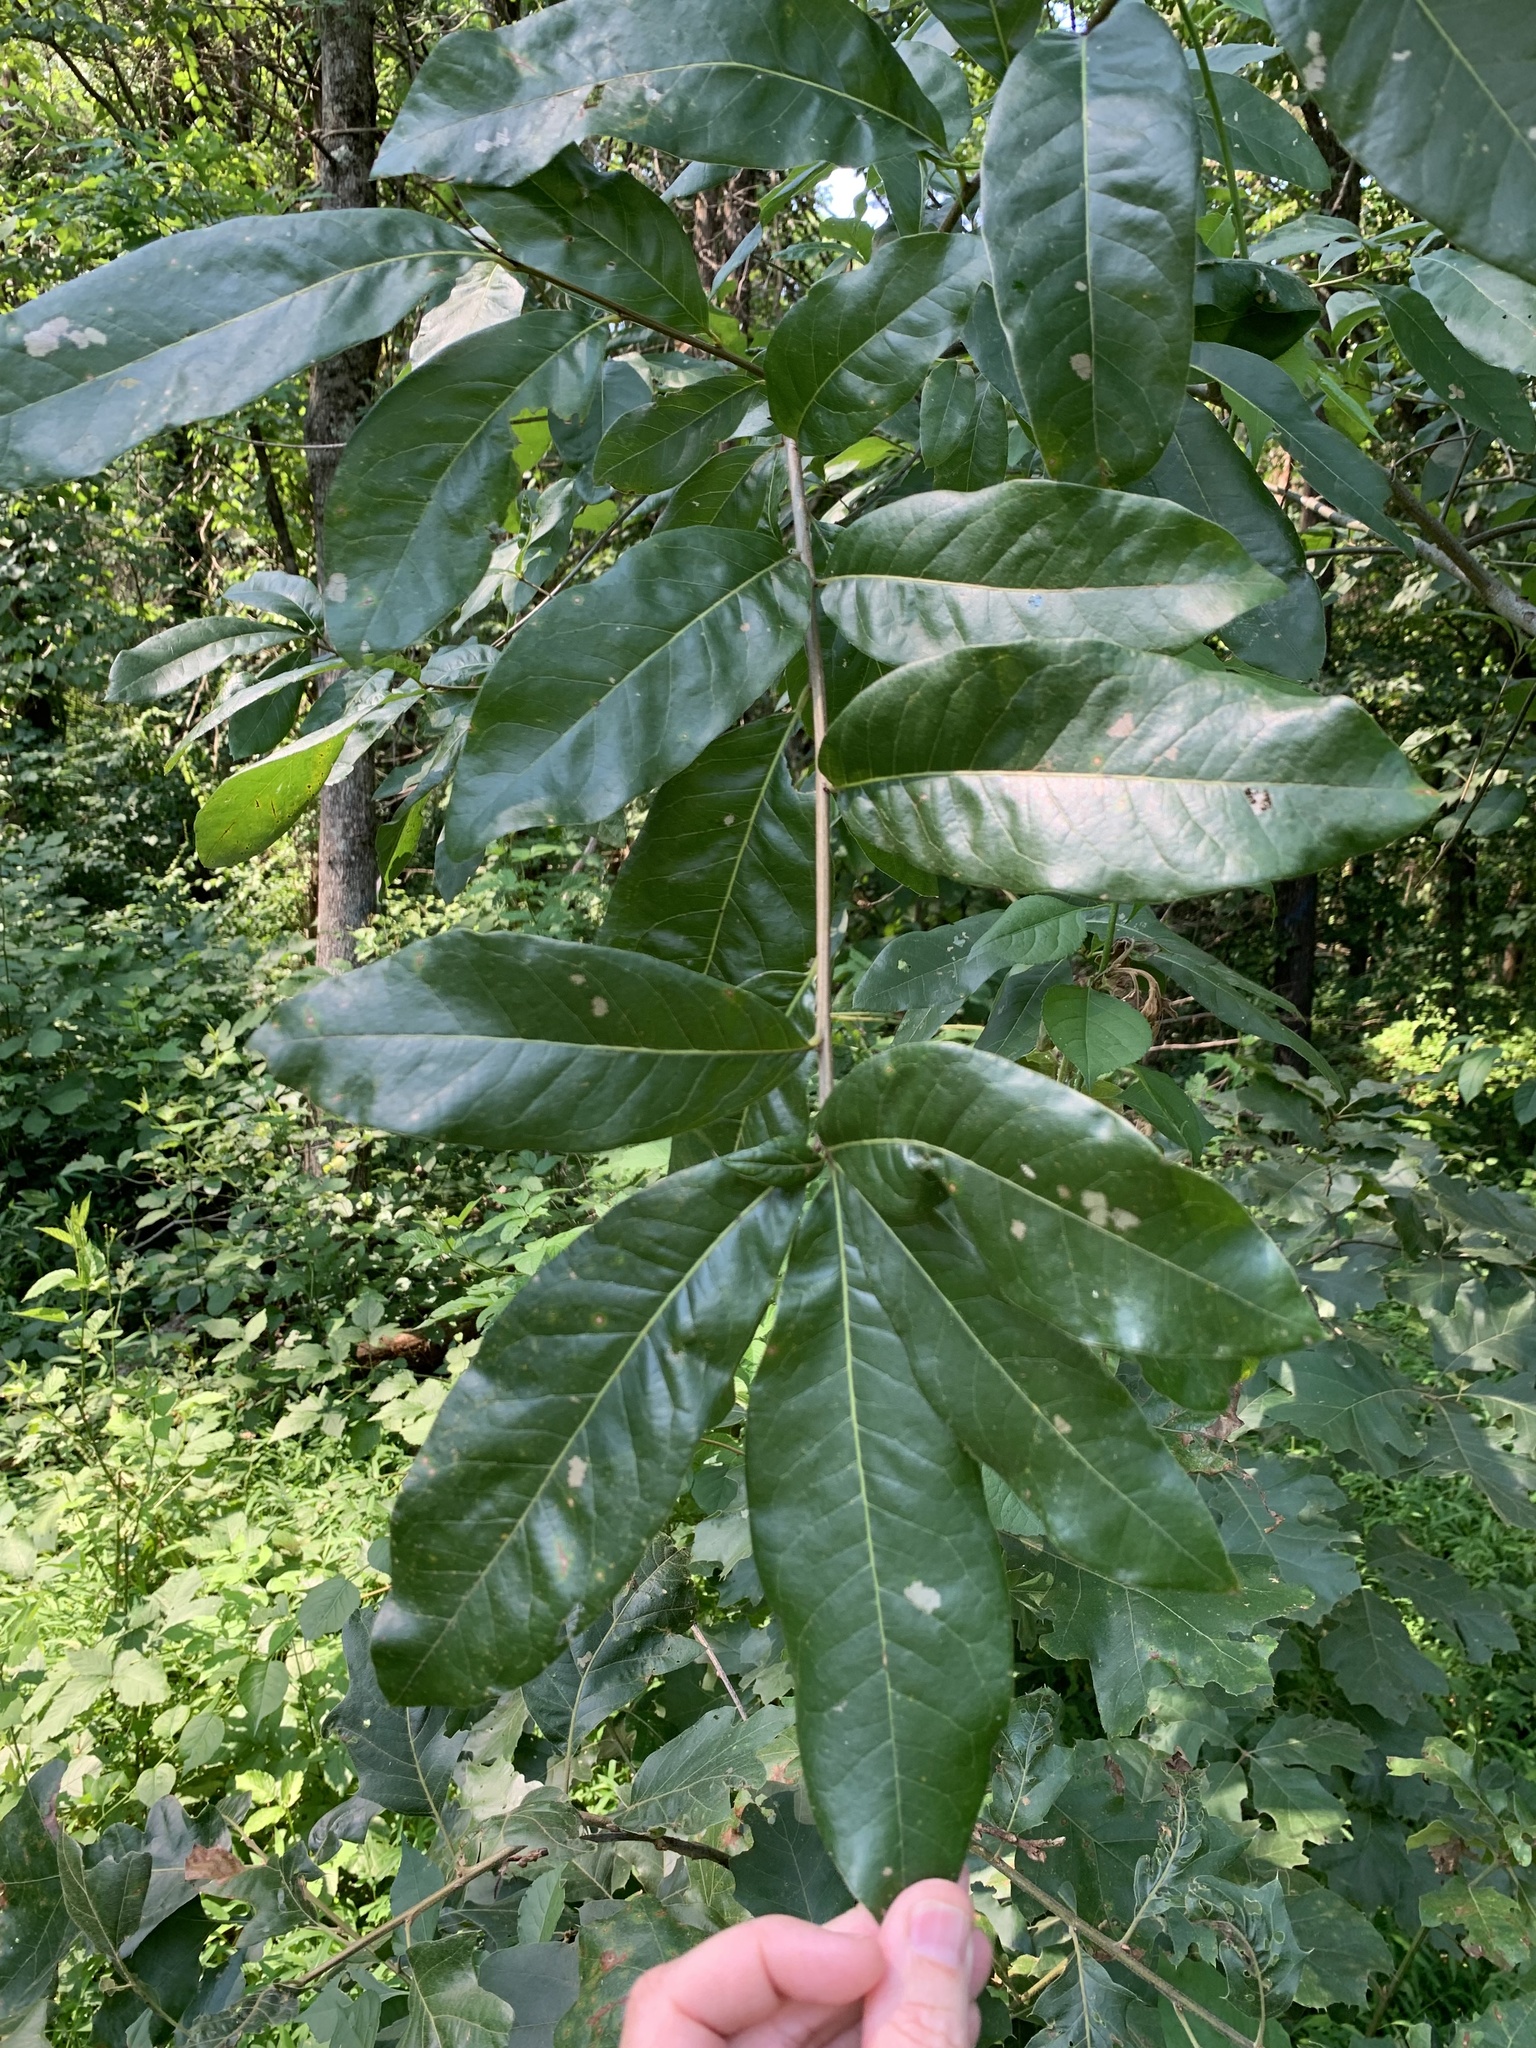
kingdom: Plantae
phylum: Tracheophyta
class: Magnoliopsida
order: Fagales
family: Fagaceae
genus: Quercus
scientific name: Quercus imbricaria
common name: Shingle oak
